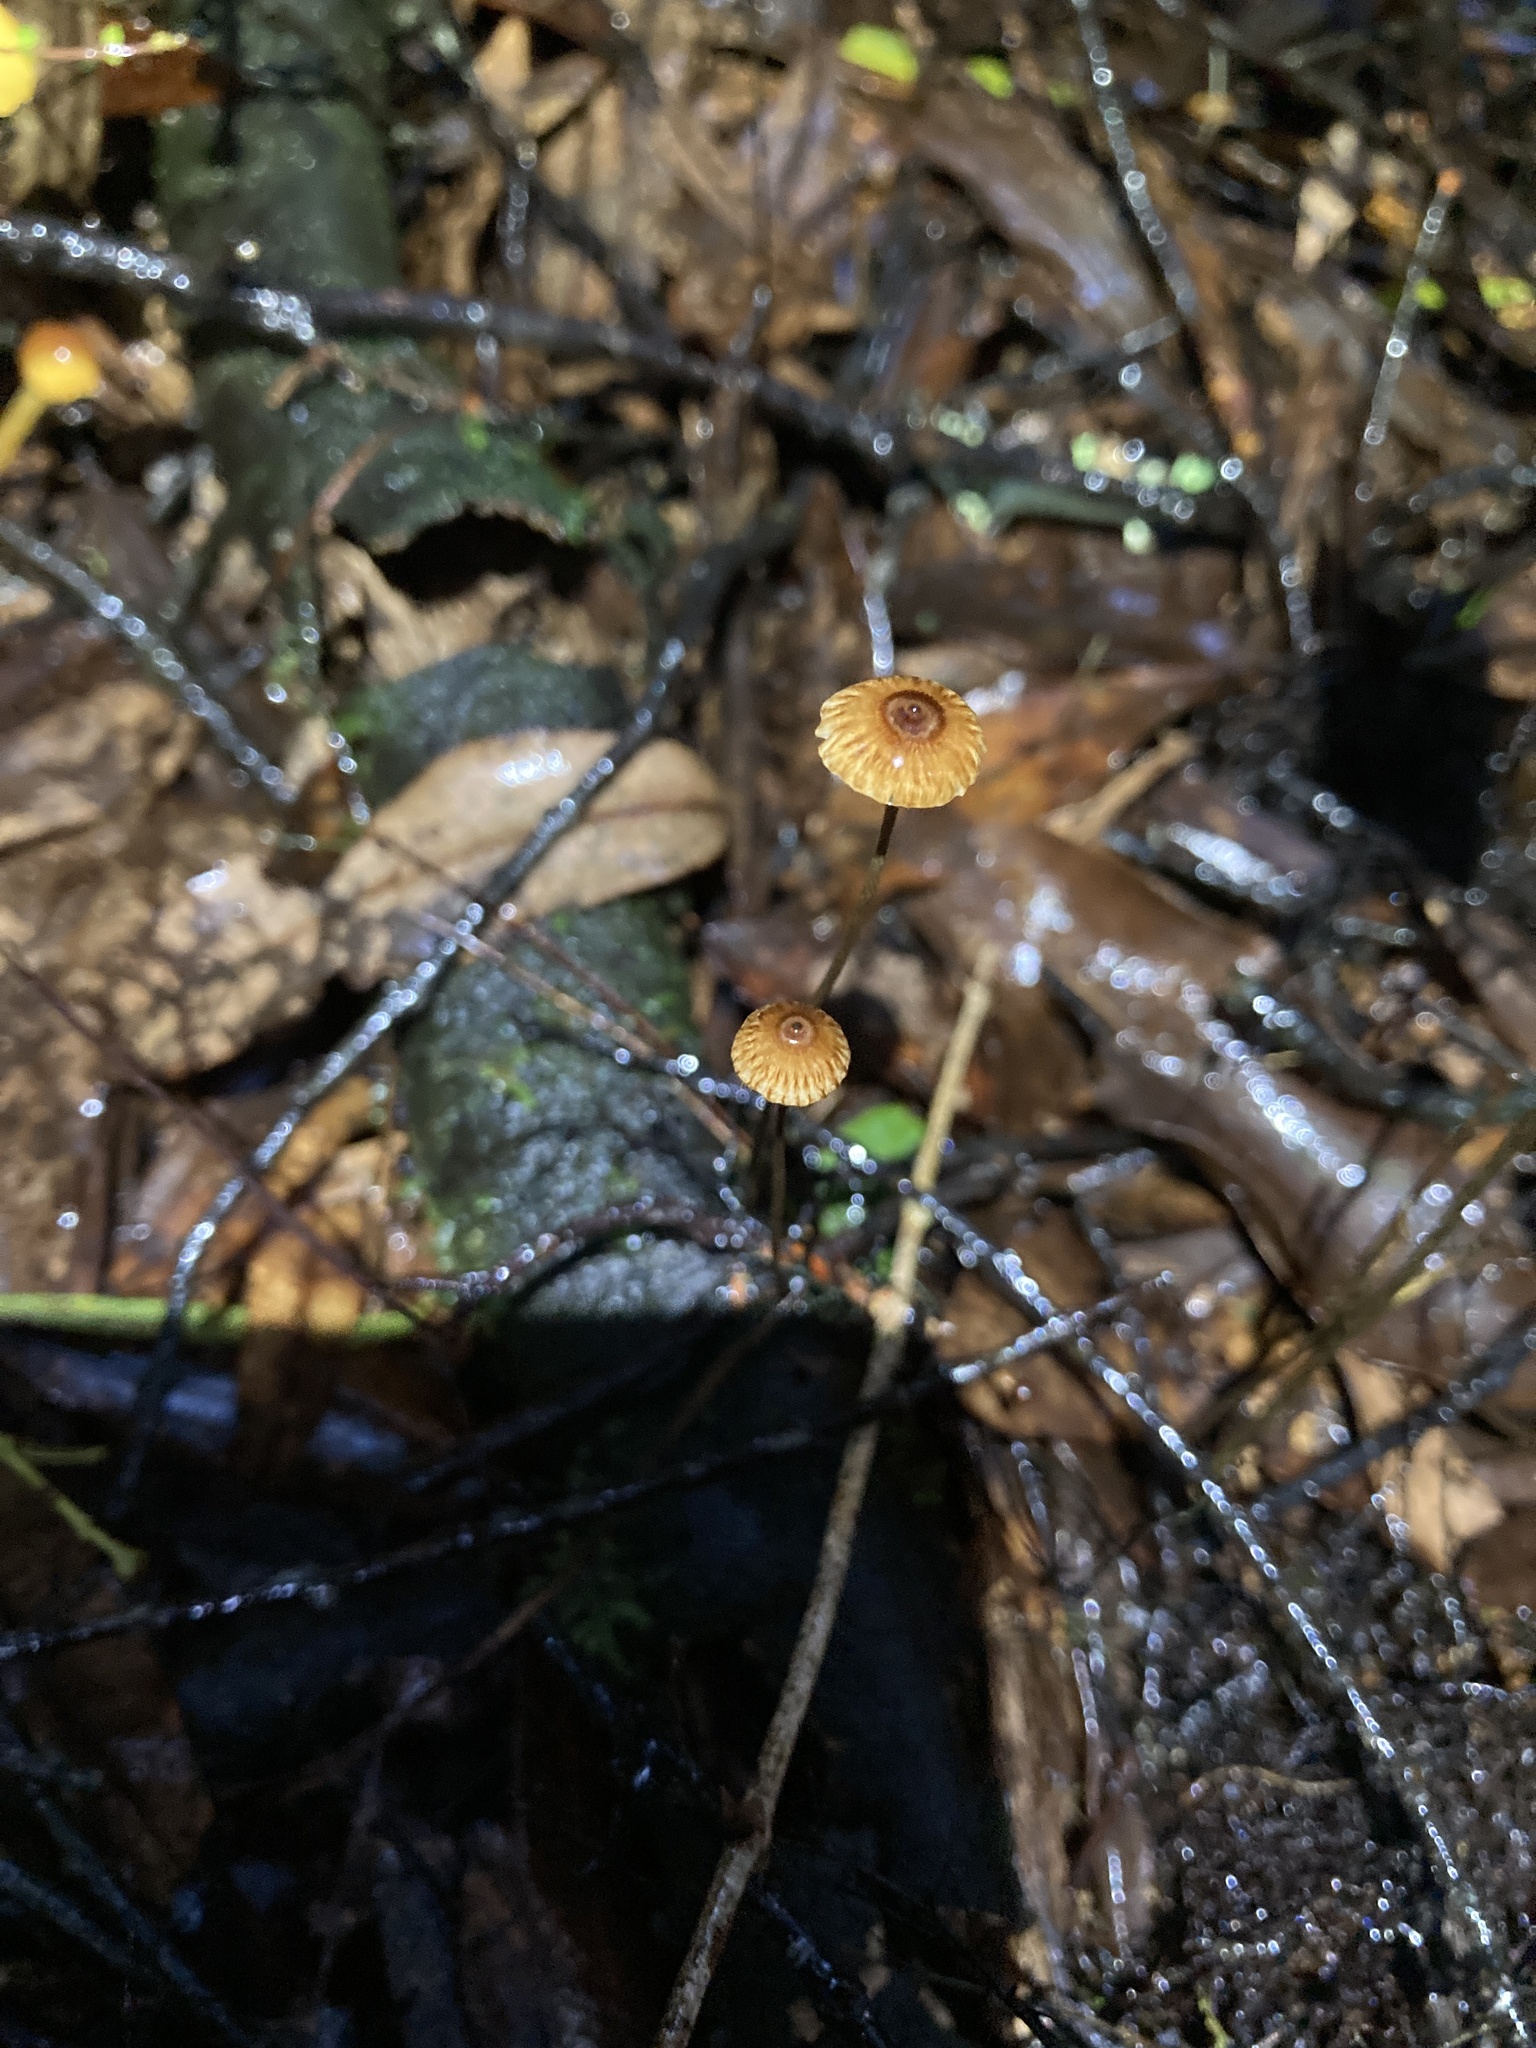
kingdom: Fungi
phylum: Basidiomycota
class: Agaricomycetes
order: Agaricales
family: Marasmiaceae
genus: Crinipellis
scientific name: Crinipellis procera
